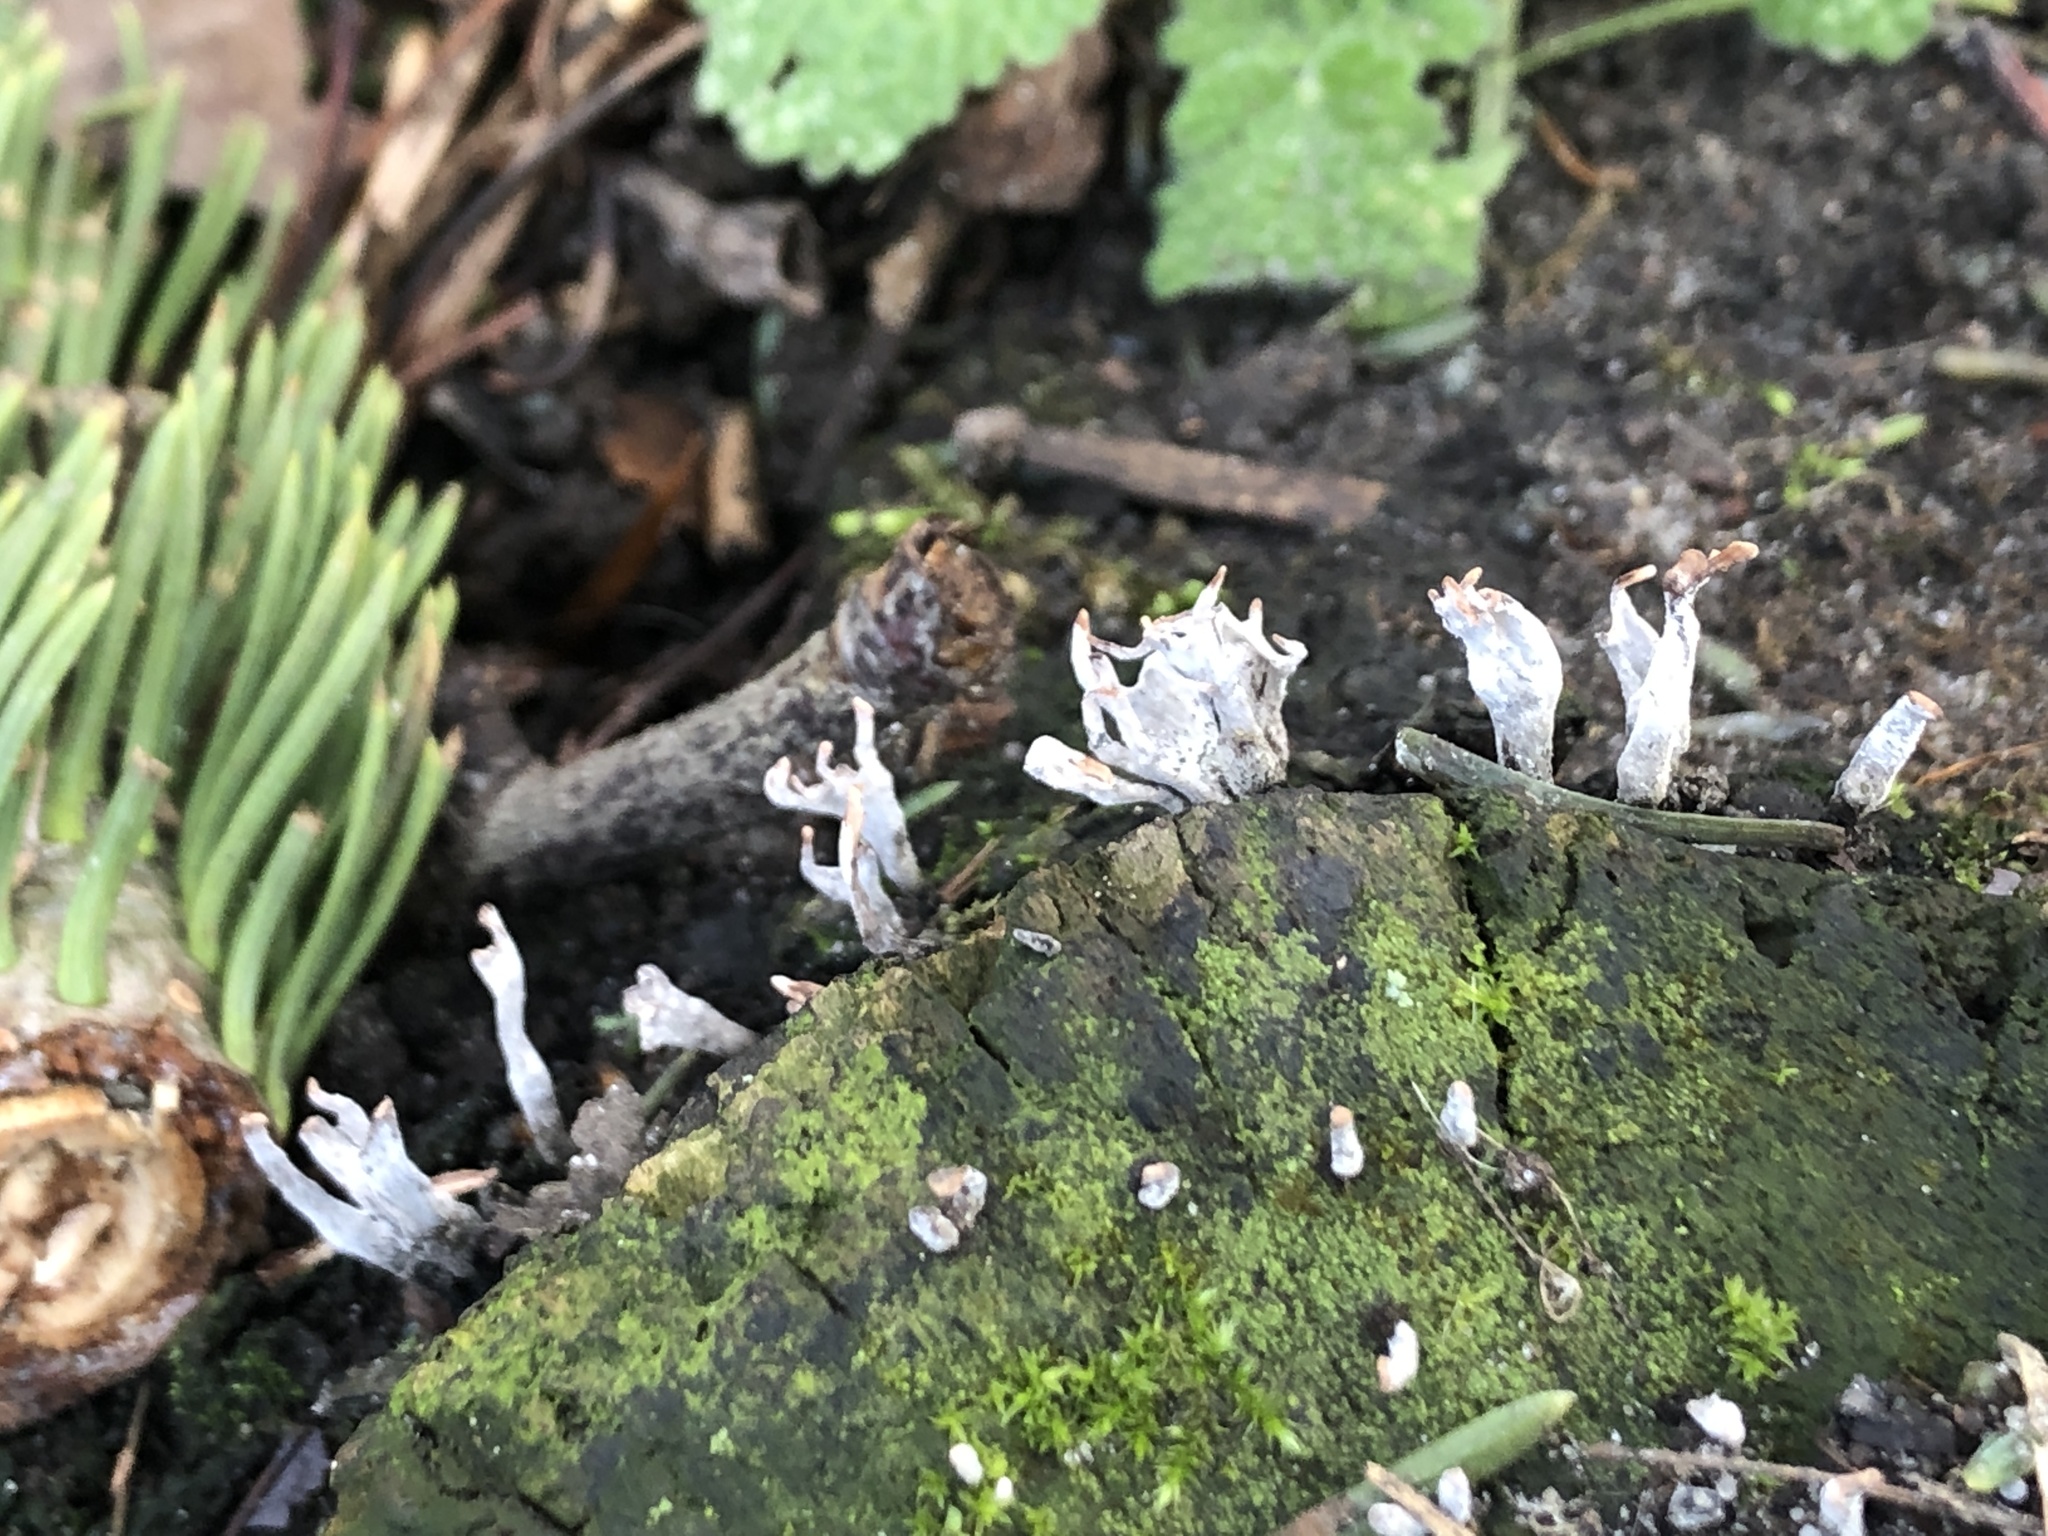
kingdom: Fungi
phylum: Ascomycota
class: Sordariomycetes
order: Xylariales
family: Xylariaceae
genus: Xylaria
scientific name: Xylaria hypoxylon
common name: Candle-snuff fungus
